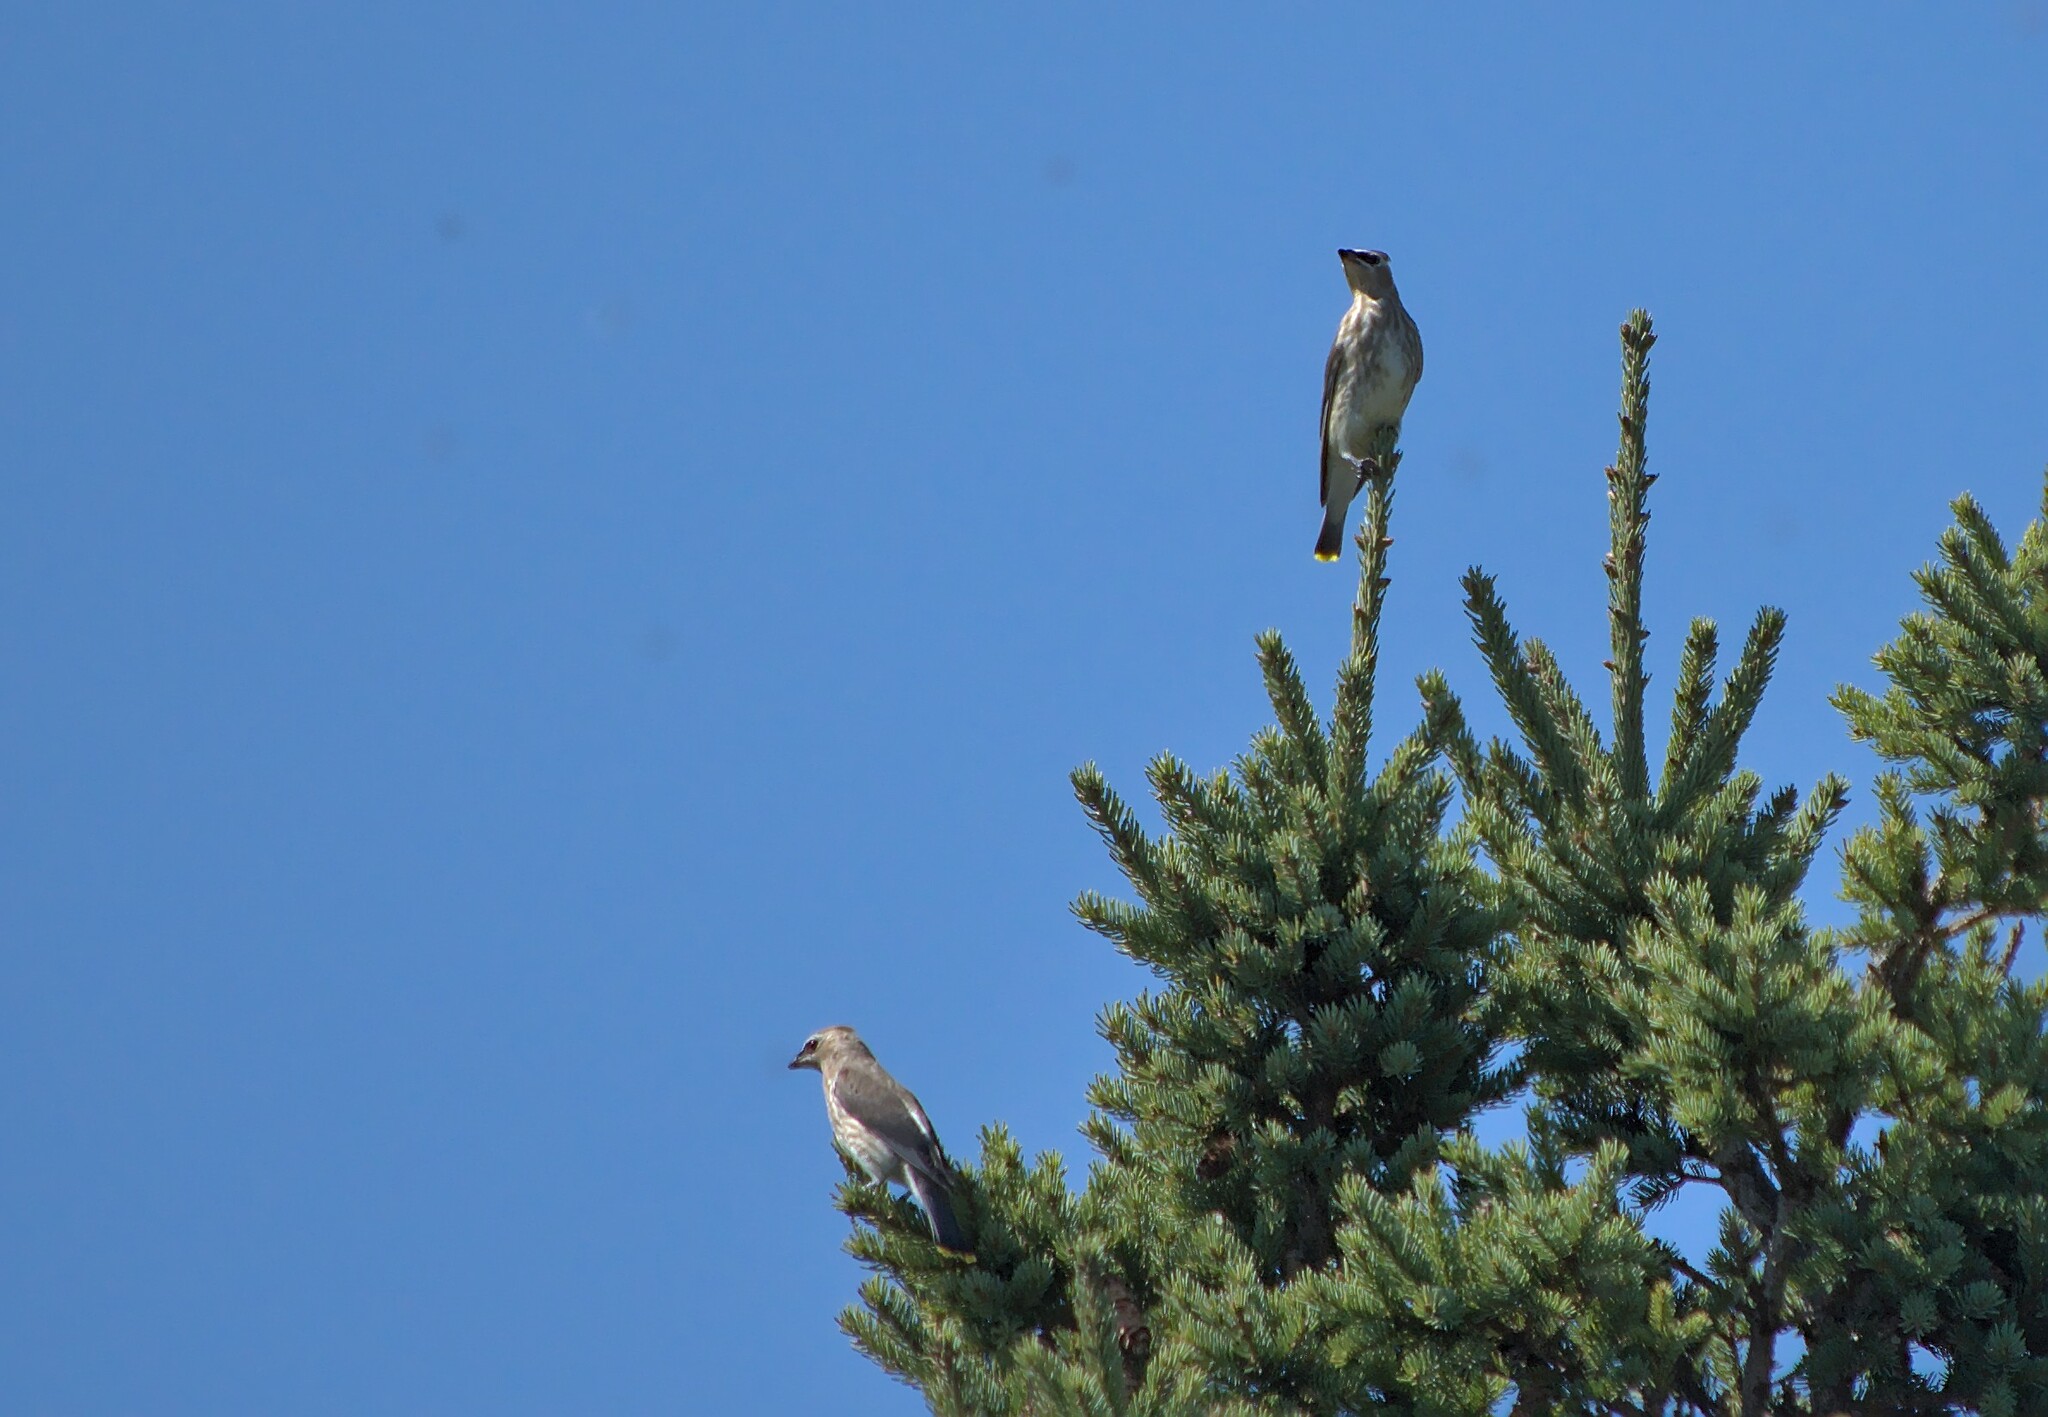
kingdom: Animalia
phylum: Chordata
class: Aves
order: Passeriformes
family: Bombycillidae
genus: Bombycilla
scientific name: Bombycilla cedrorum
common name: Cedar waxwing
